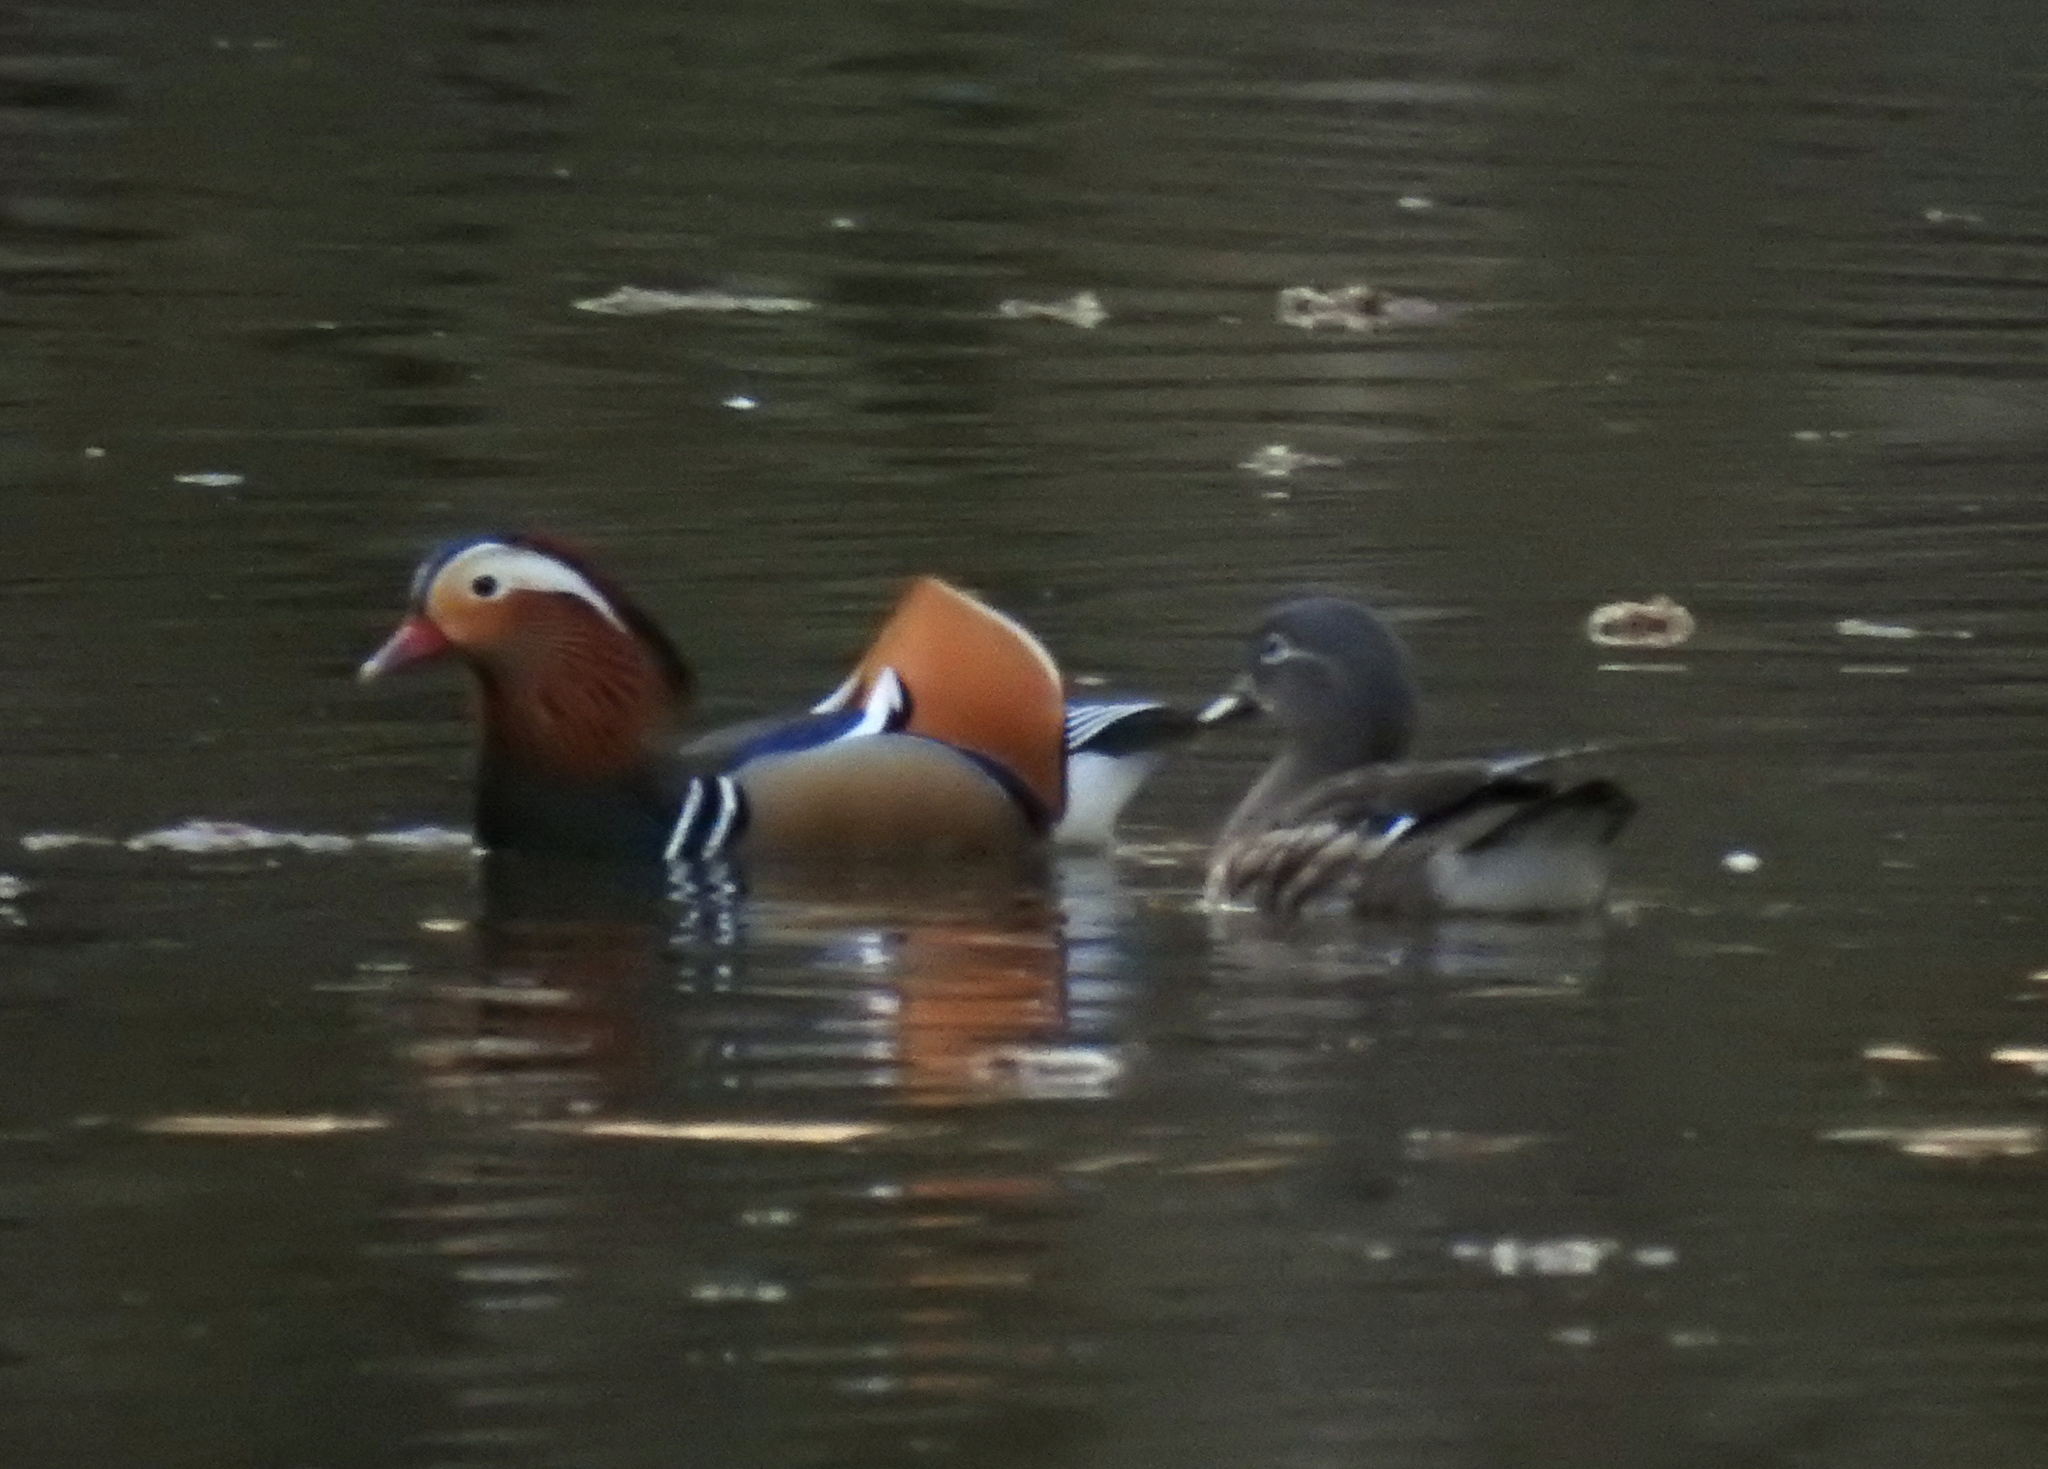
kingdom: Animalia
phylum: Chordata
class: Aves
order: Anseriformes
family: Anatidae
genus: Aix
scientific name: Aix galericulata
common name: Mandarin duck
